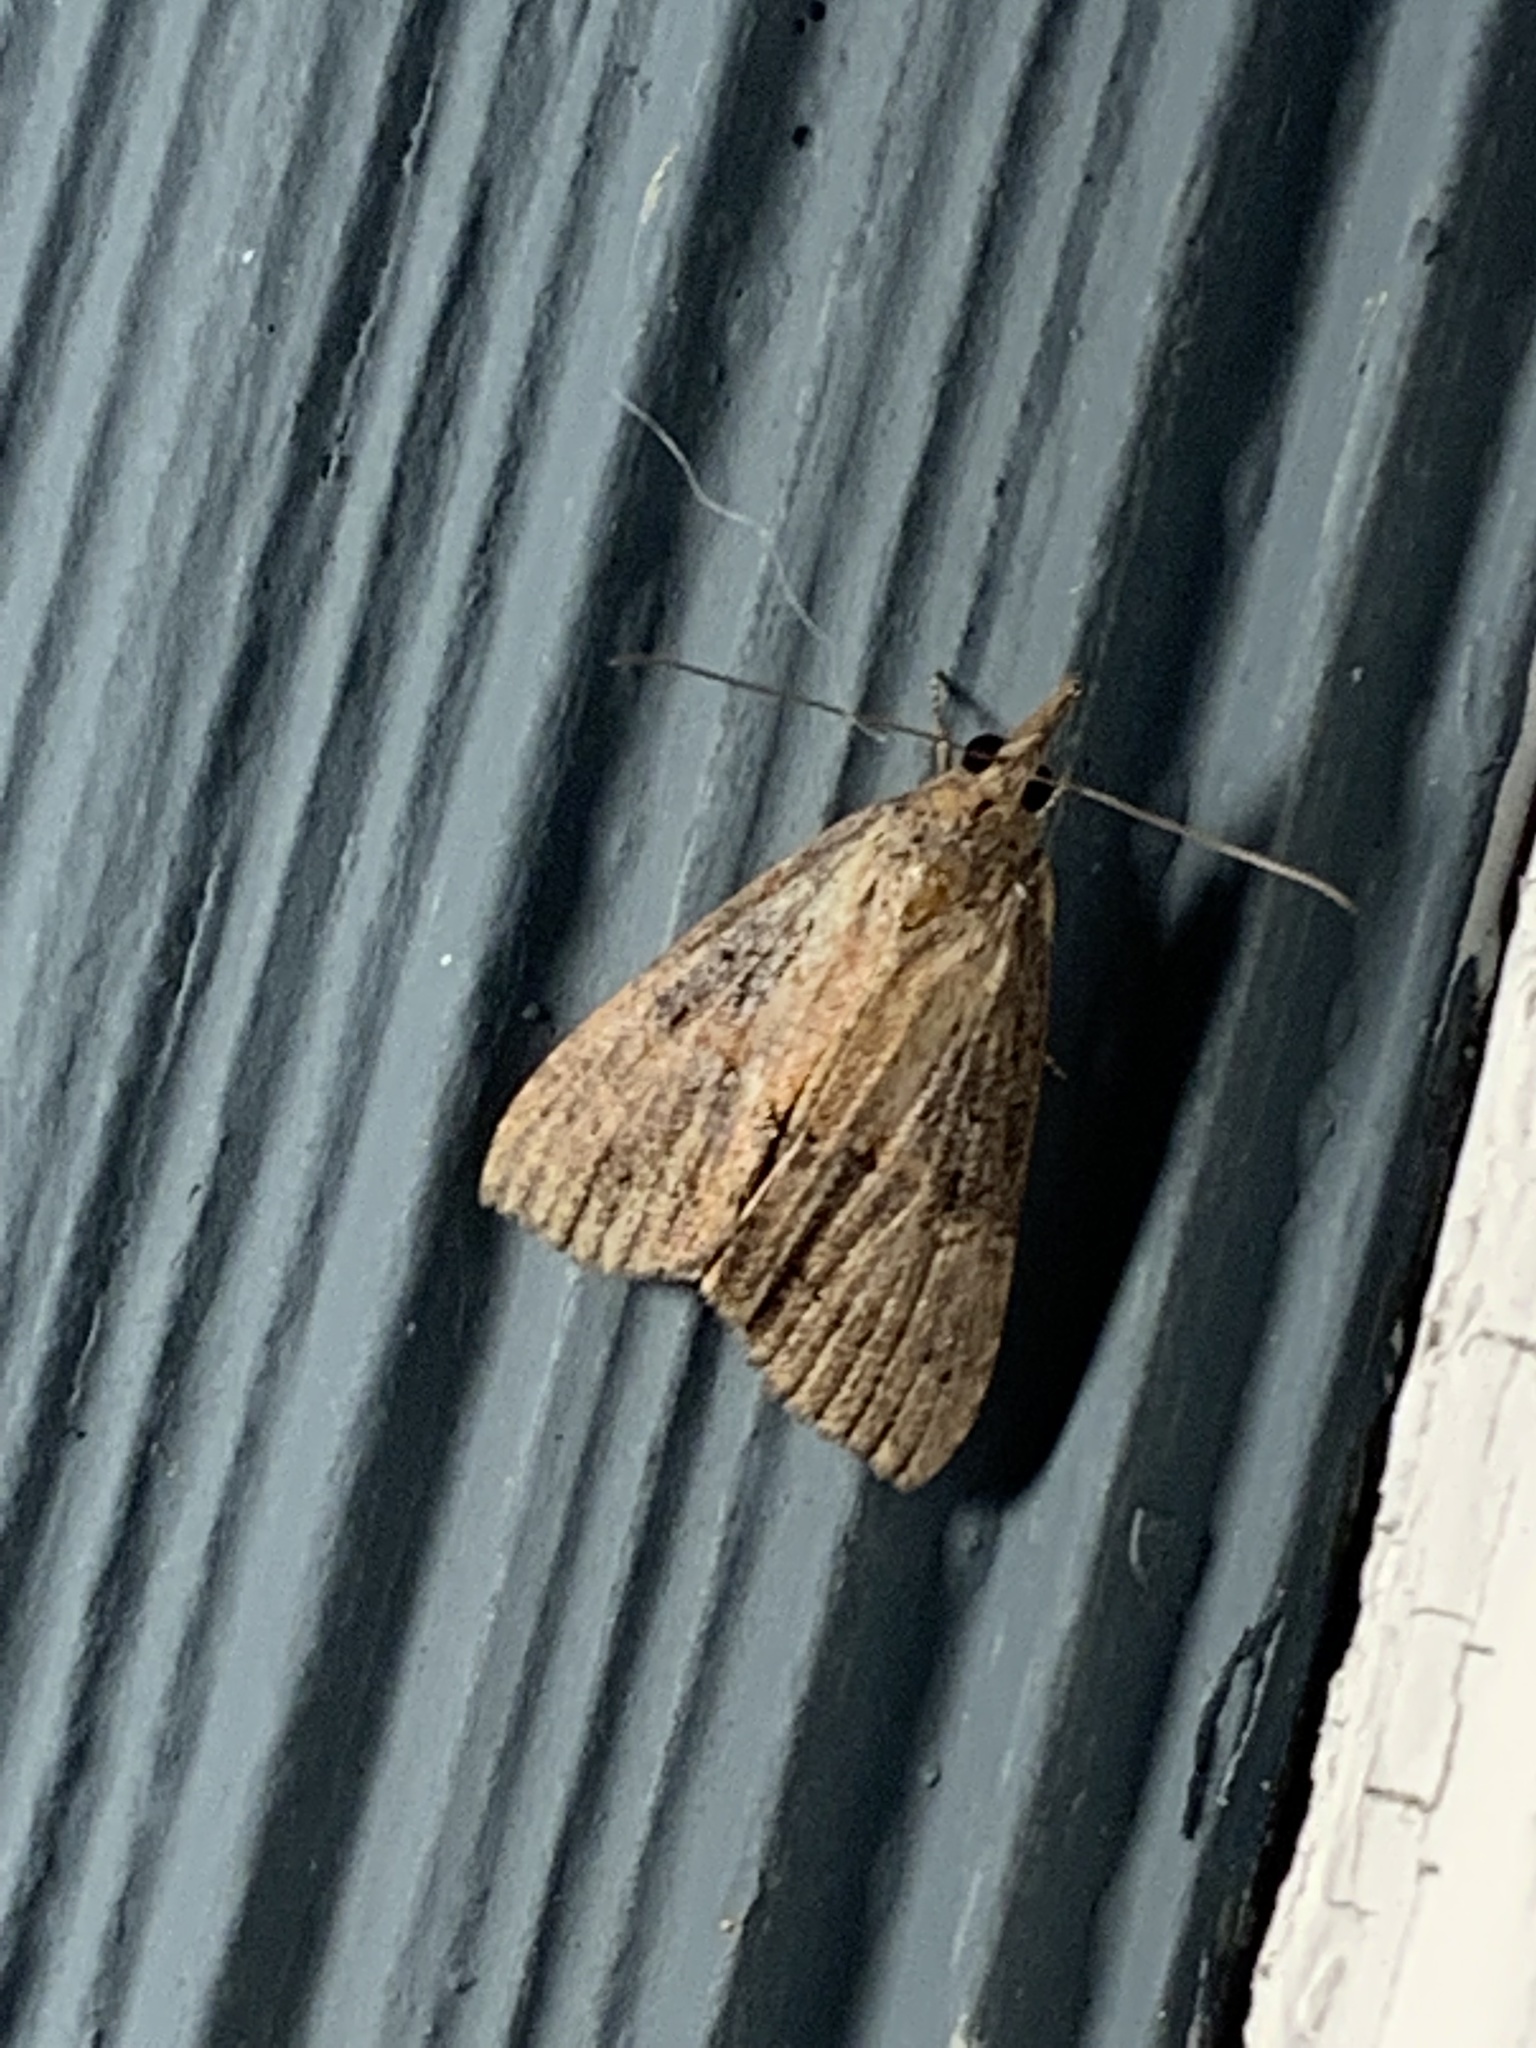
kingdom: Animalia
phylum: Arthropoda
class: Insecta
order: Lepidoptera
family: Erebidae
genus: Hypena
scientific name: Hypena scabra
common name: Green cloverworm
